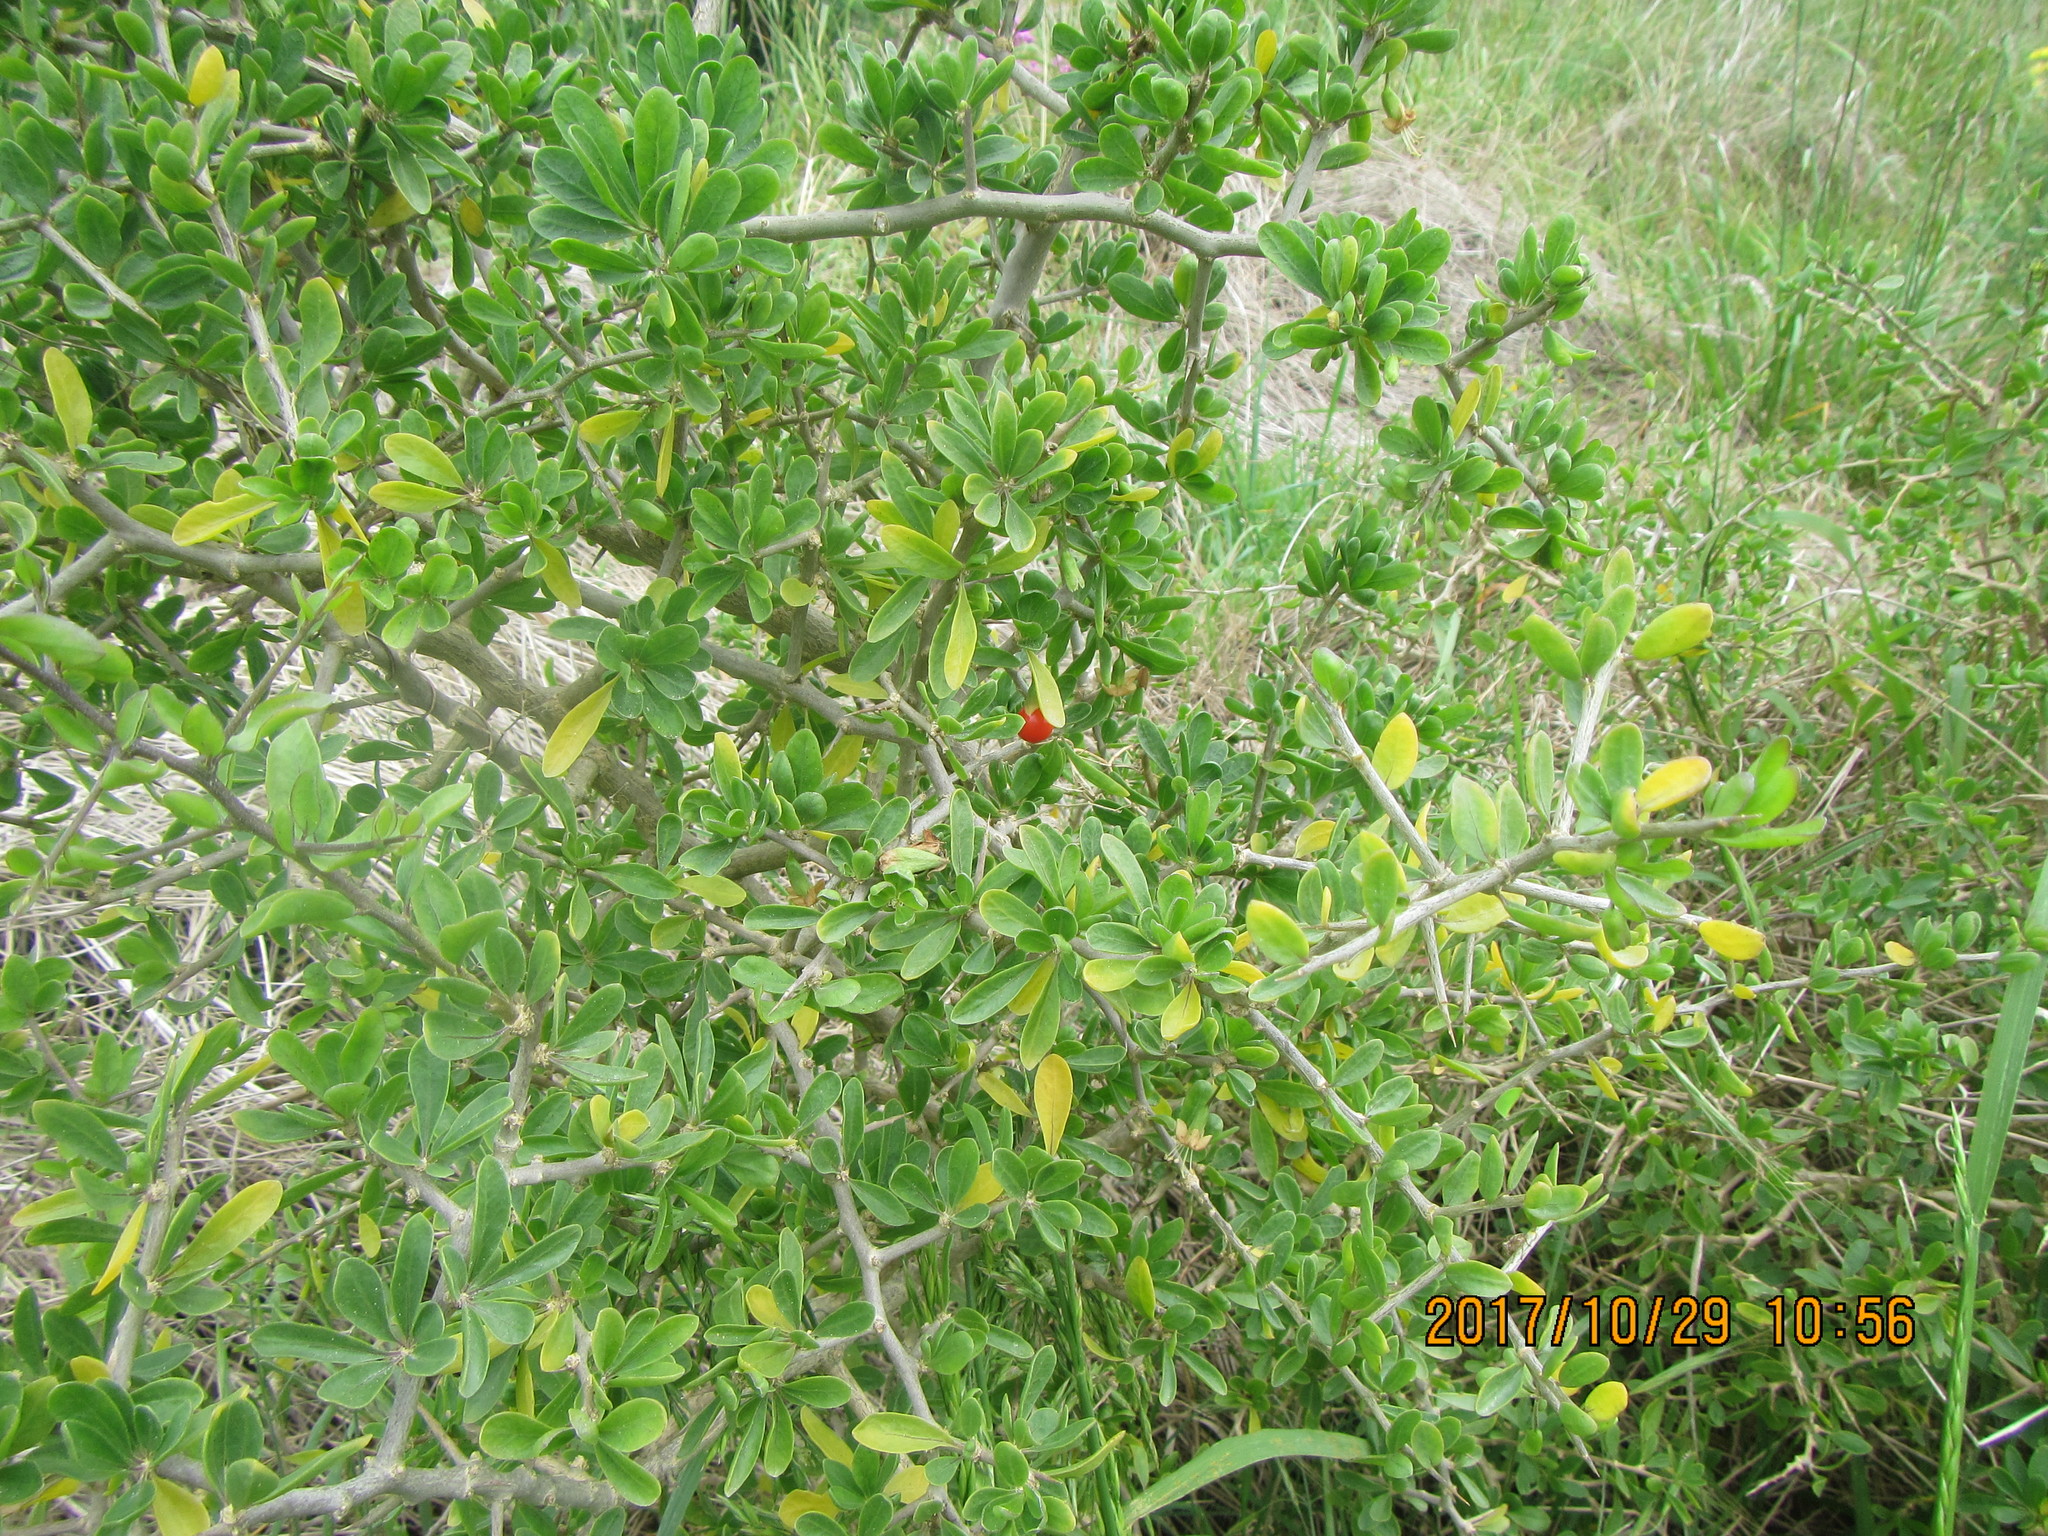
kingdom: Plantae
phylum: Tracheophyta
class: Magnoliopsida
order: Solanales
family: Solanaceae
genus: Lycium
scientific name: Lycium ferocissimum
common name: African boxthorn
